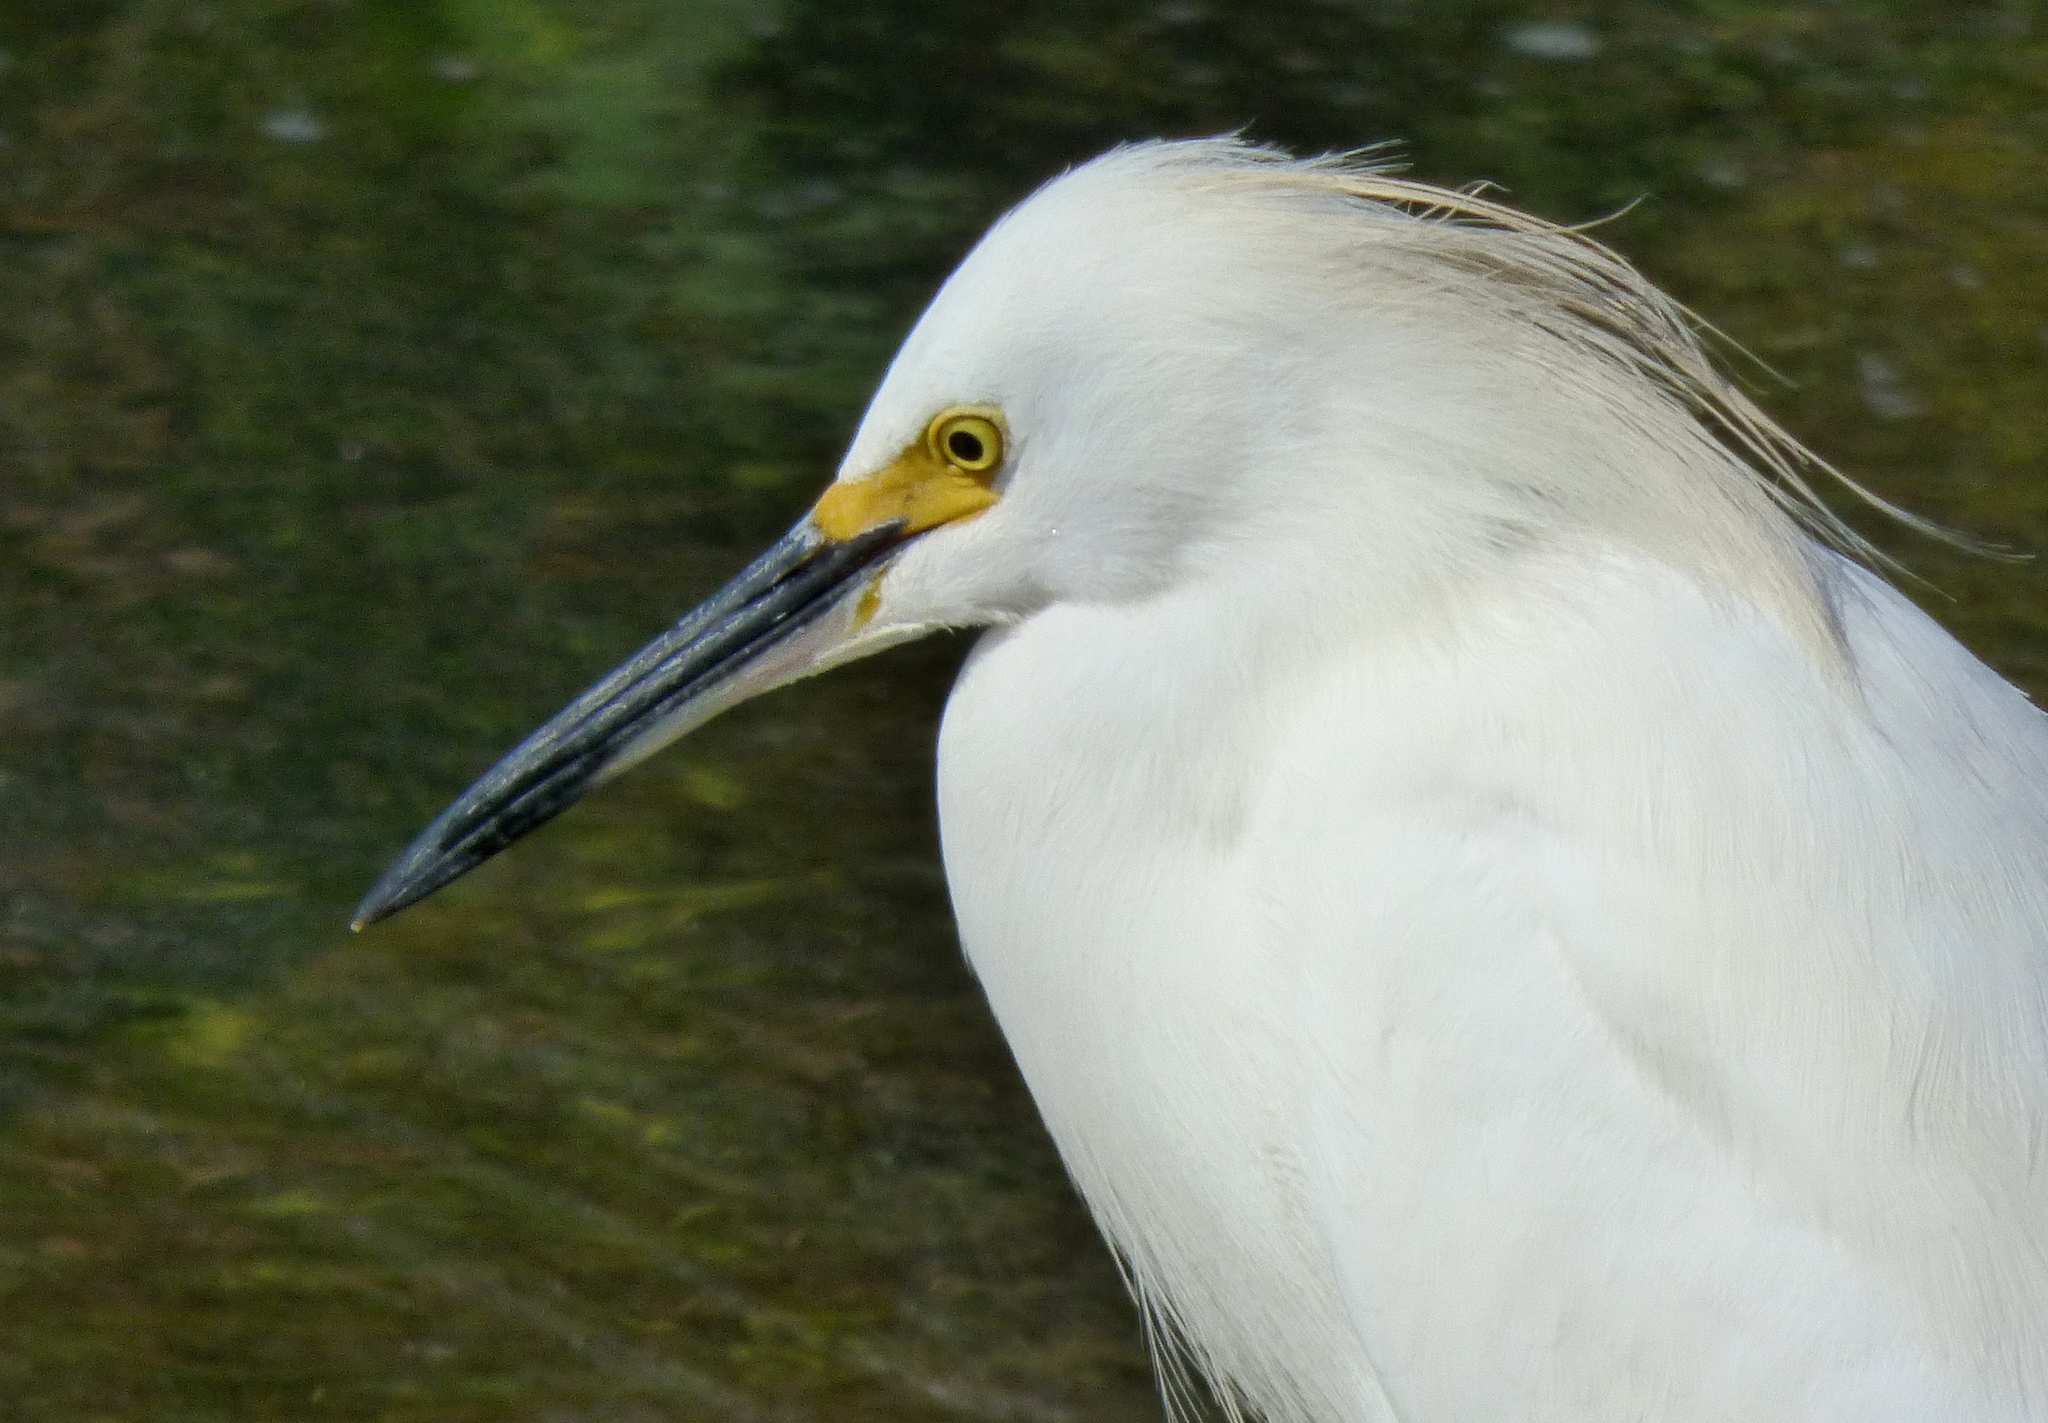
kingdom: Animalia
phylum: Chordata
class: Aves
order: Pelecaniformes
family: Ardeidae
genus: Egretta
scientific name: Egretta thula
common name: Snowy egret
